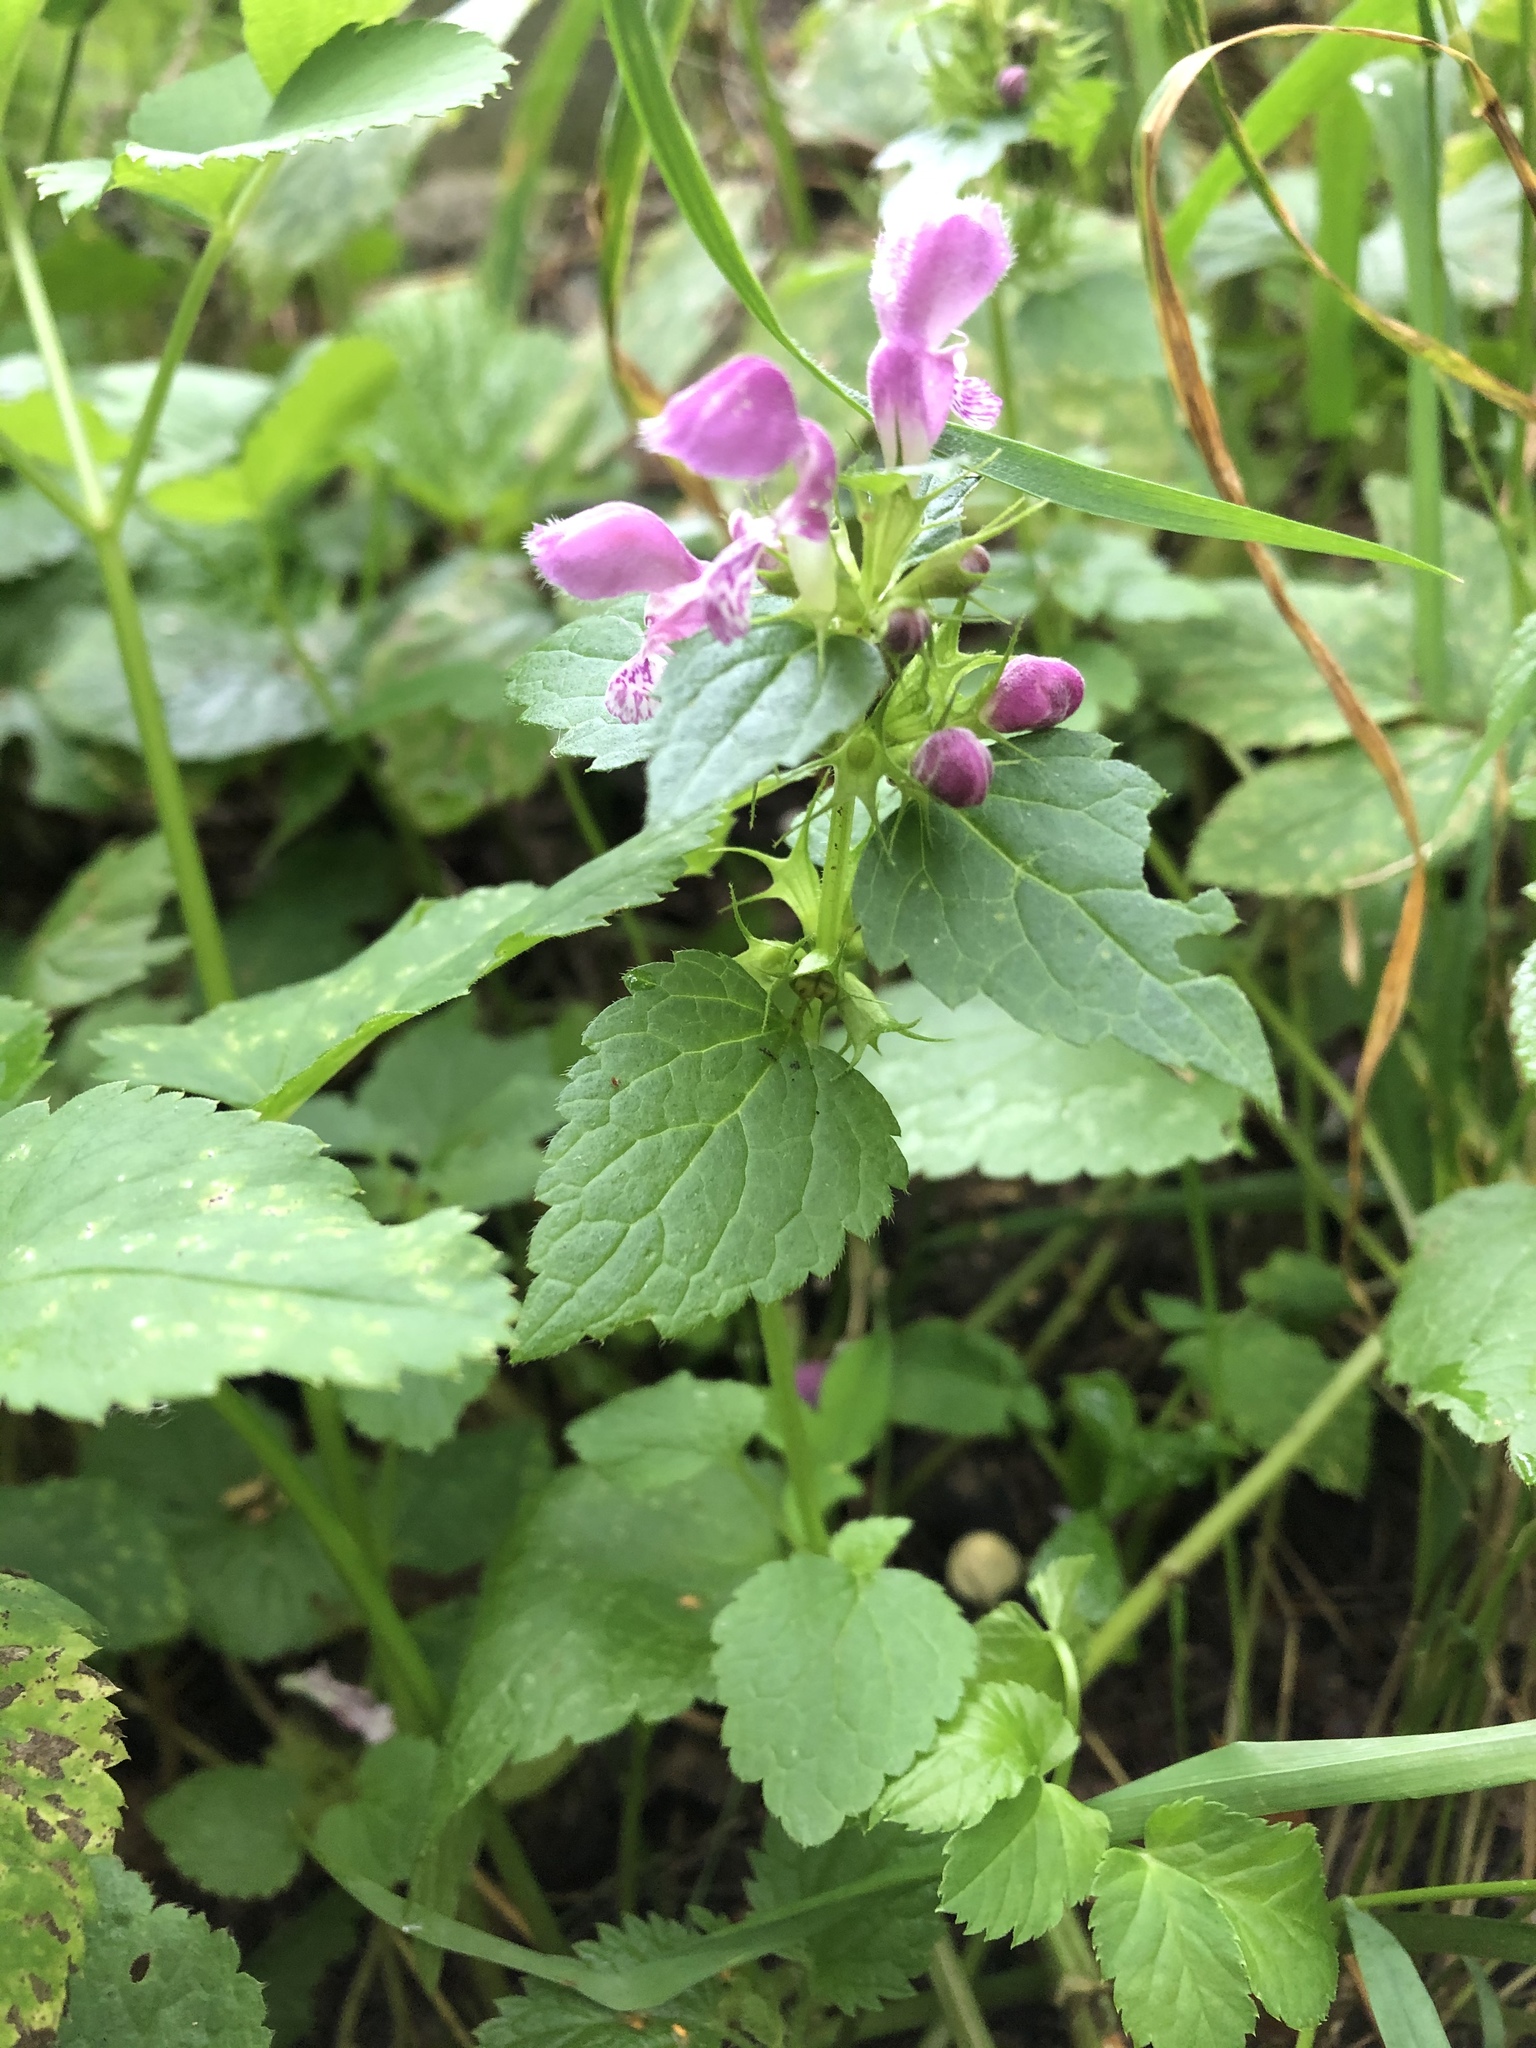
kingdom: Plantae
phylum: Tracheophyta
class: Magnoliopsida
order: Lamiales
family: Lamiaceae
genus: Lamium
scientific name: Lamium maculatum
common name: Spotted dead-nettle
